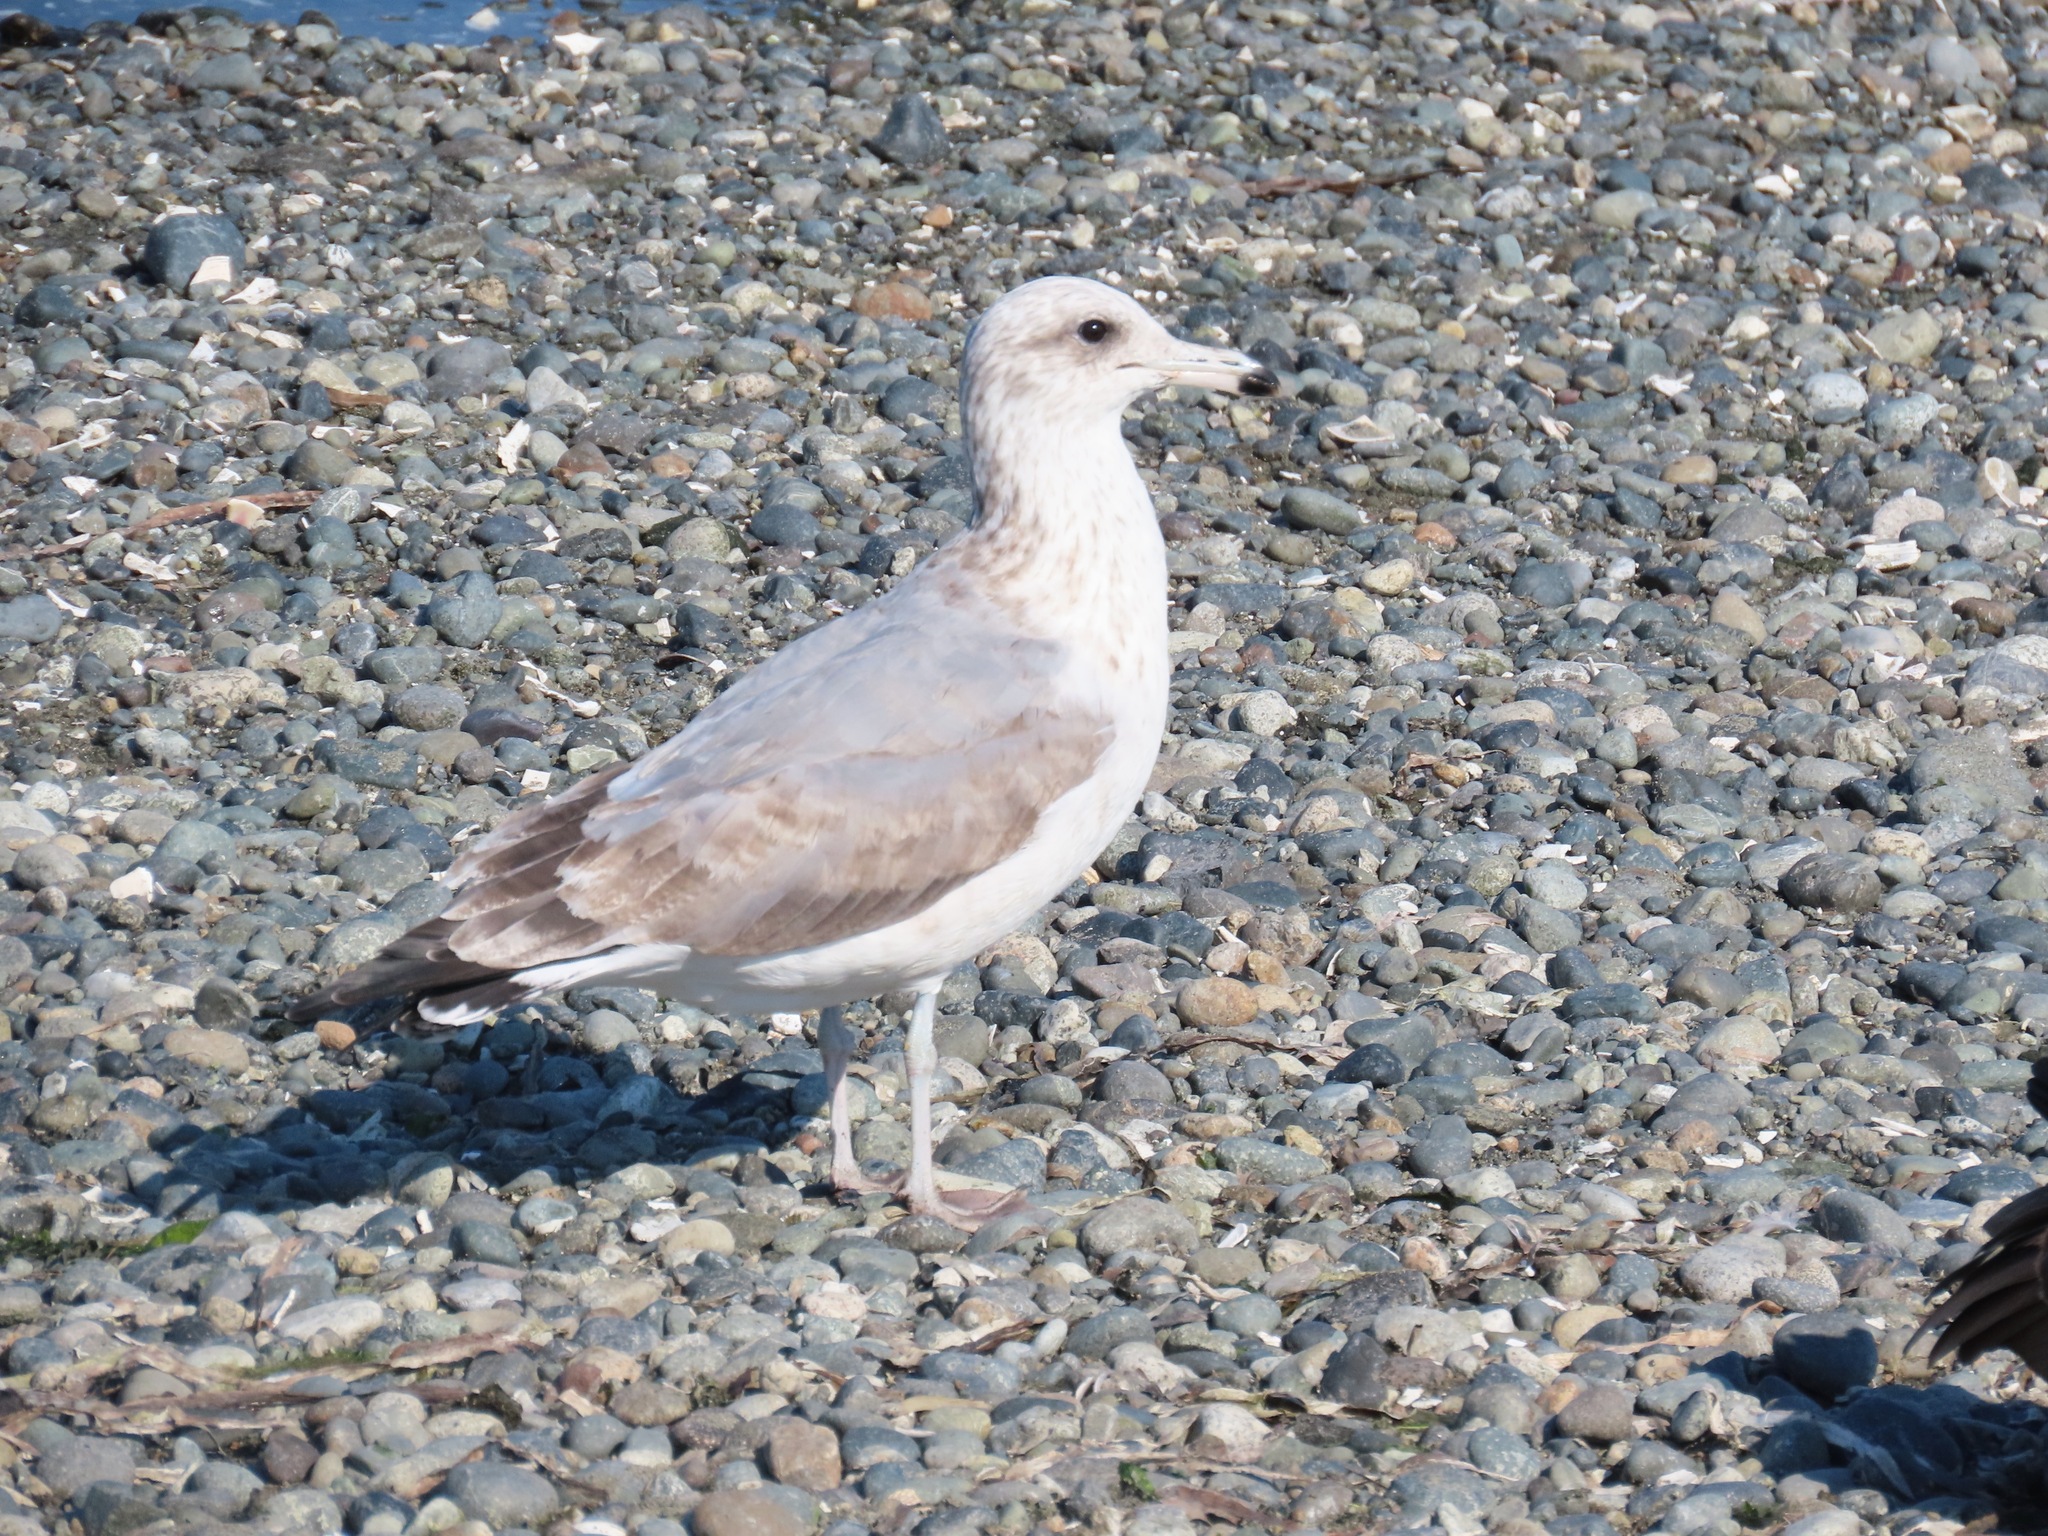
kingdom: Animalia
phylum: Chordata
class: Aves
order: Charadriiformes
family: Laridae
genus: Larus
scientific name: Larus californicus
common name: California gull
